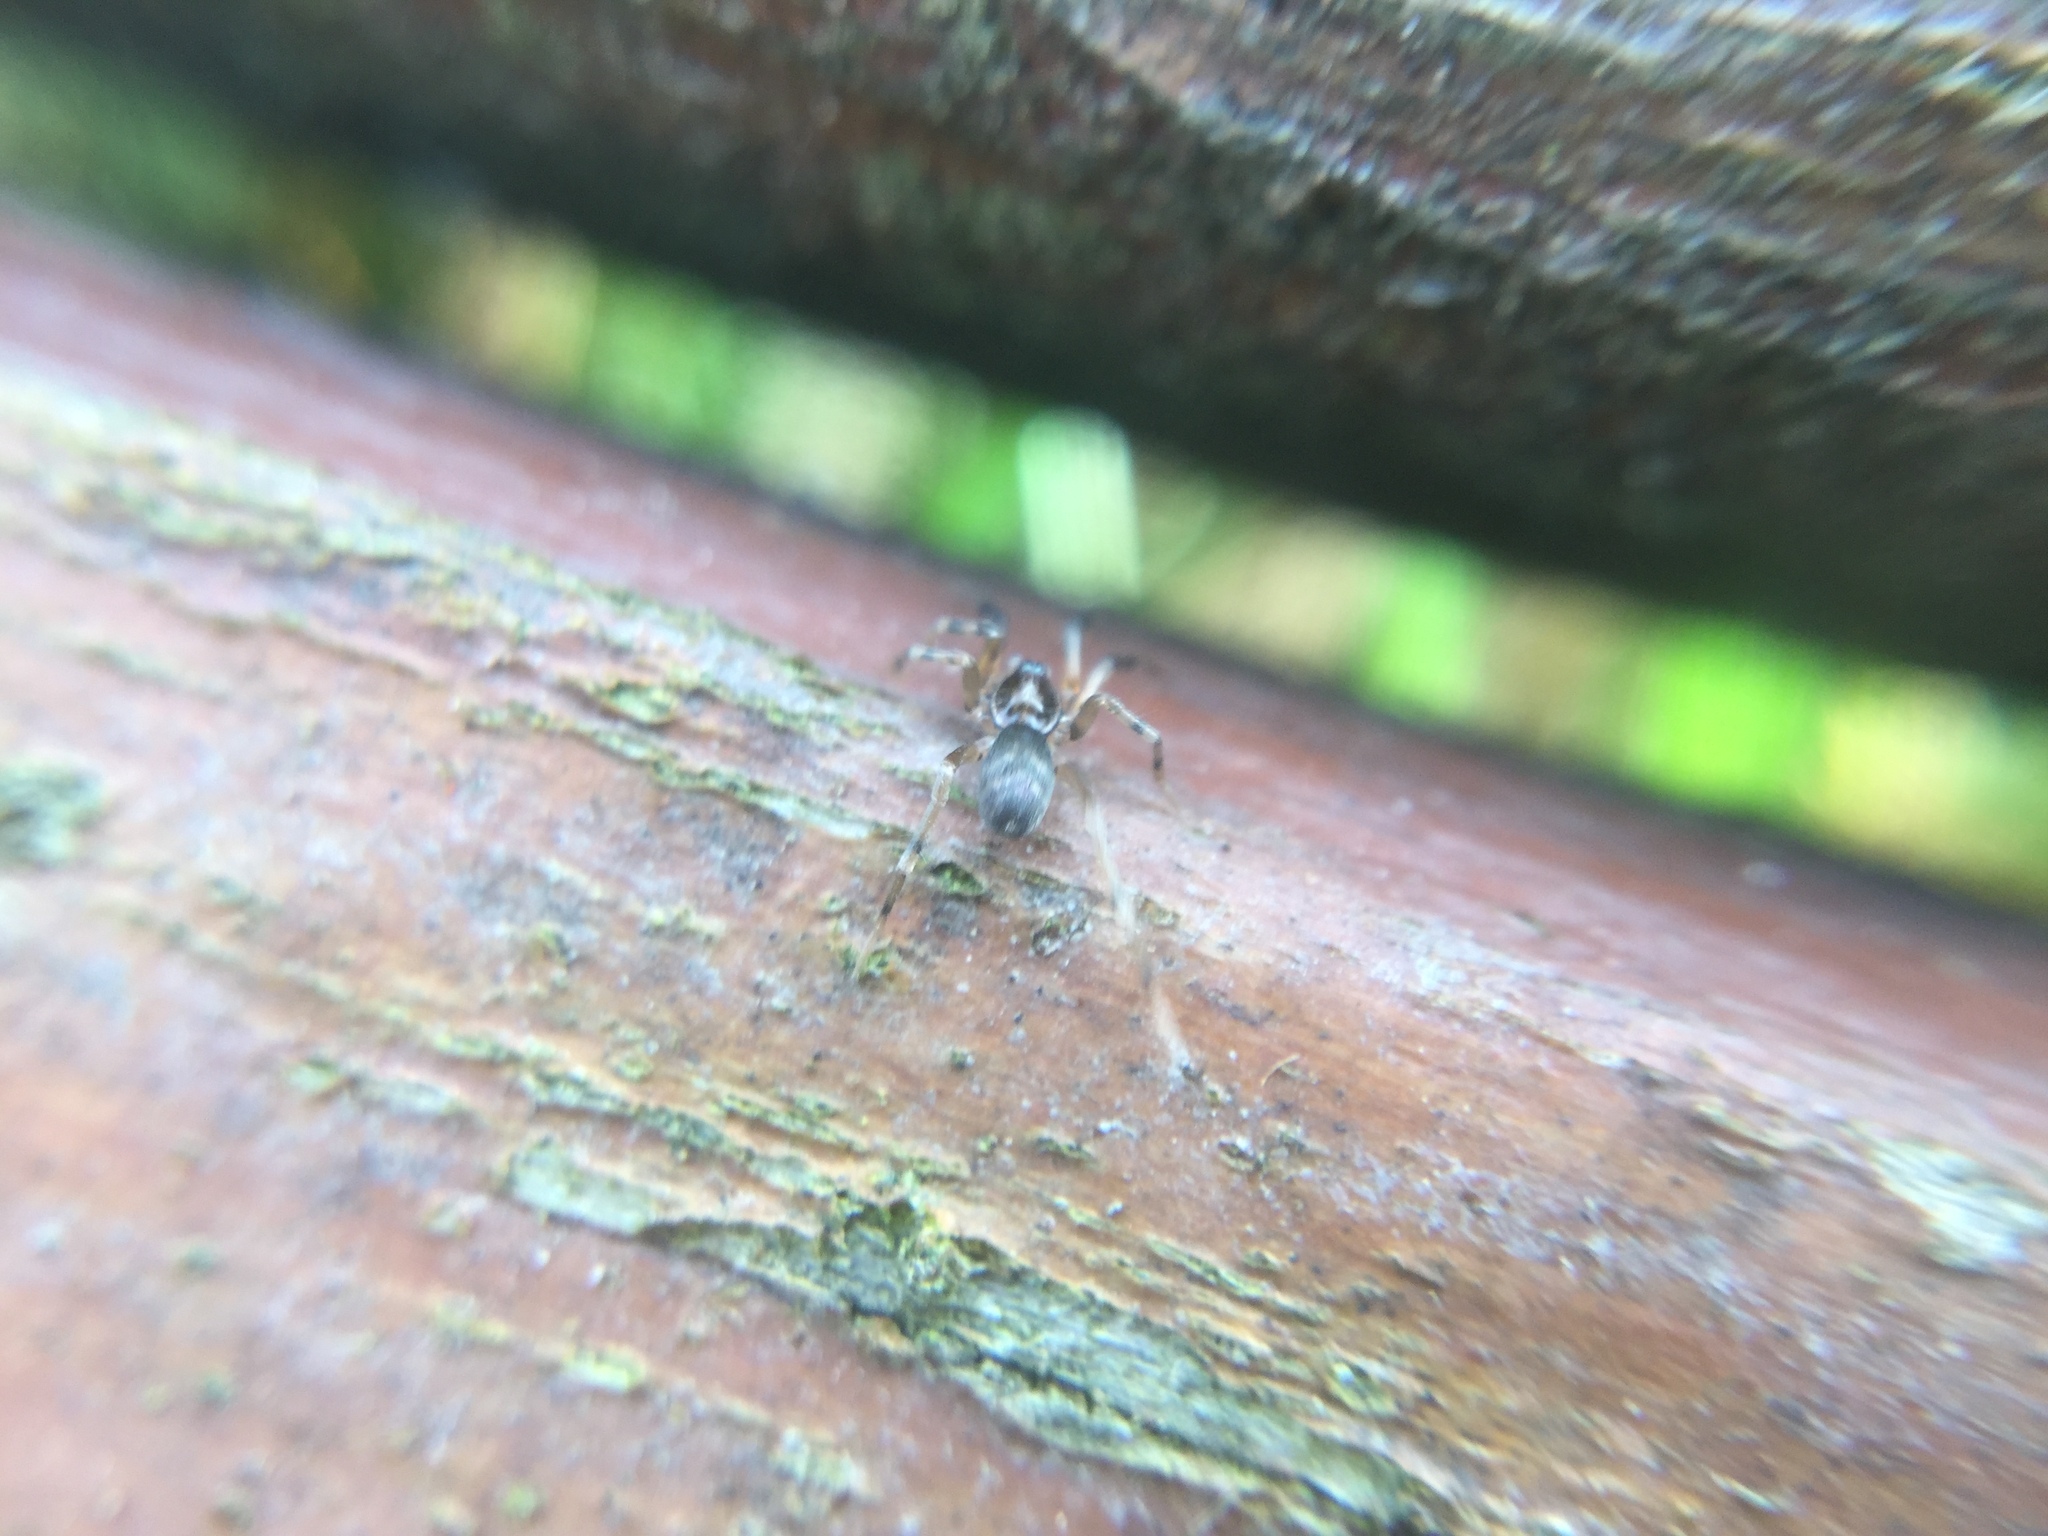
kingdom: Animalia
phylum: Arthropoda
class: Arachnida
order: Araneae
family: Phrurolithidae
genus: Phrurotimpus
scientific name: Phrurotimpus borealis
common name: Greater ant-mimic corinne spider
